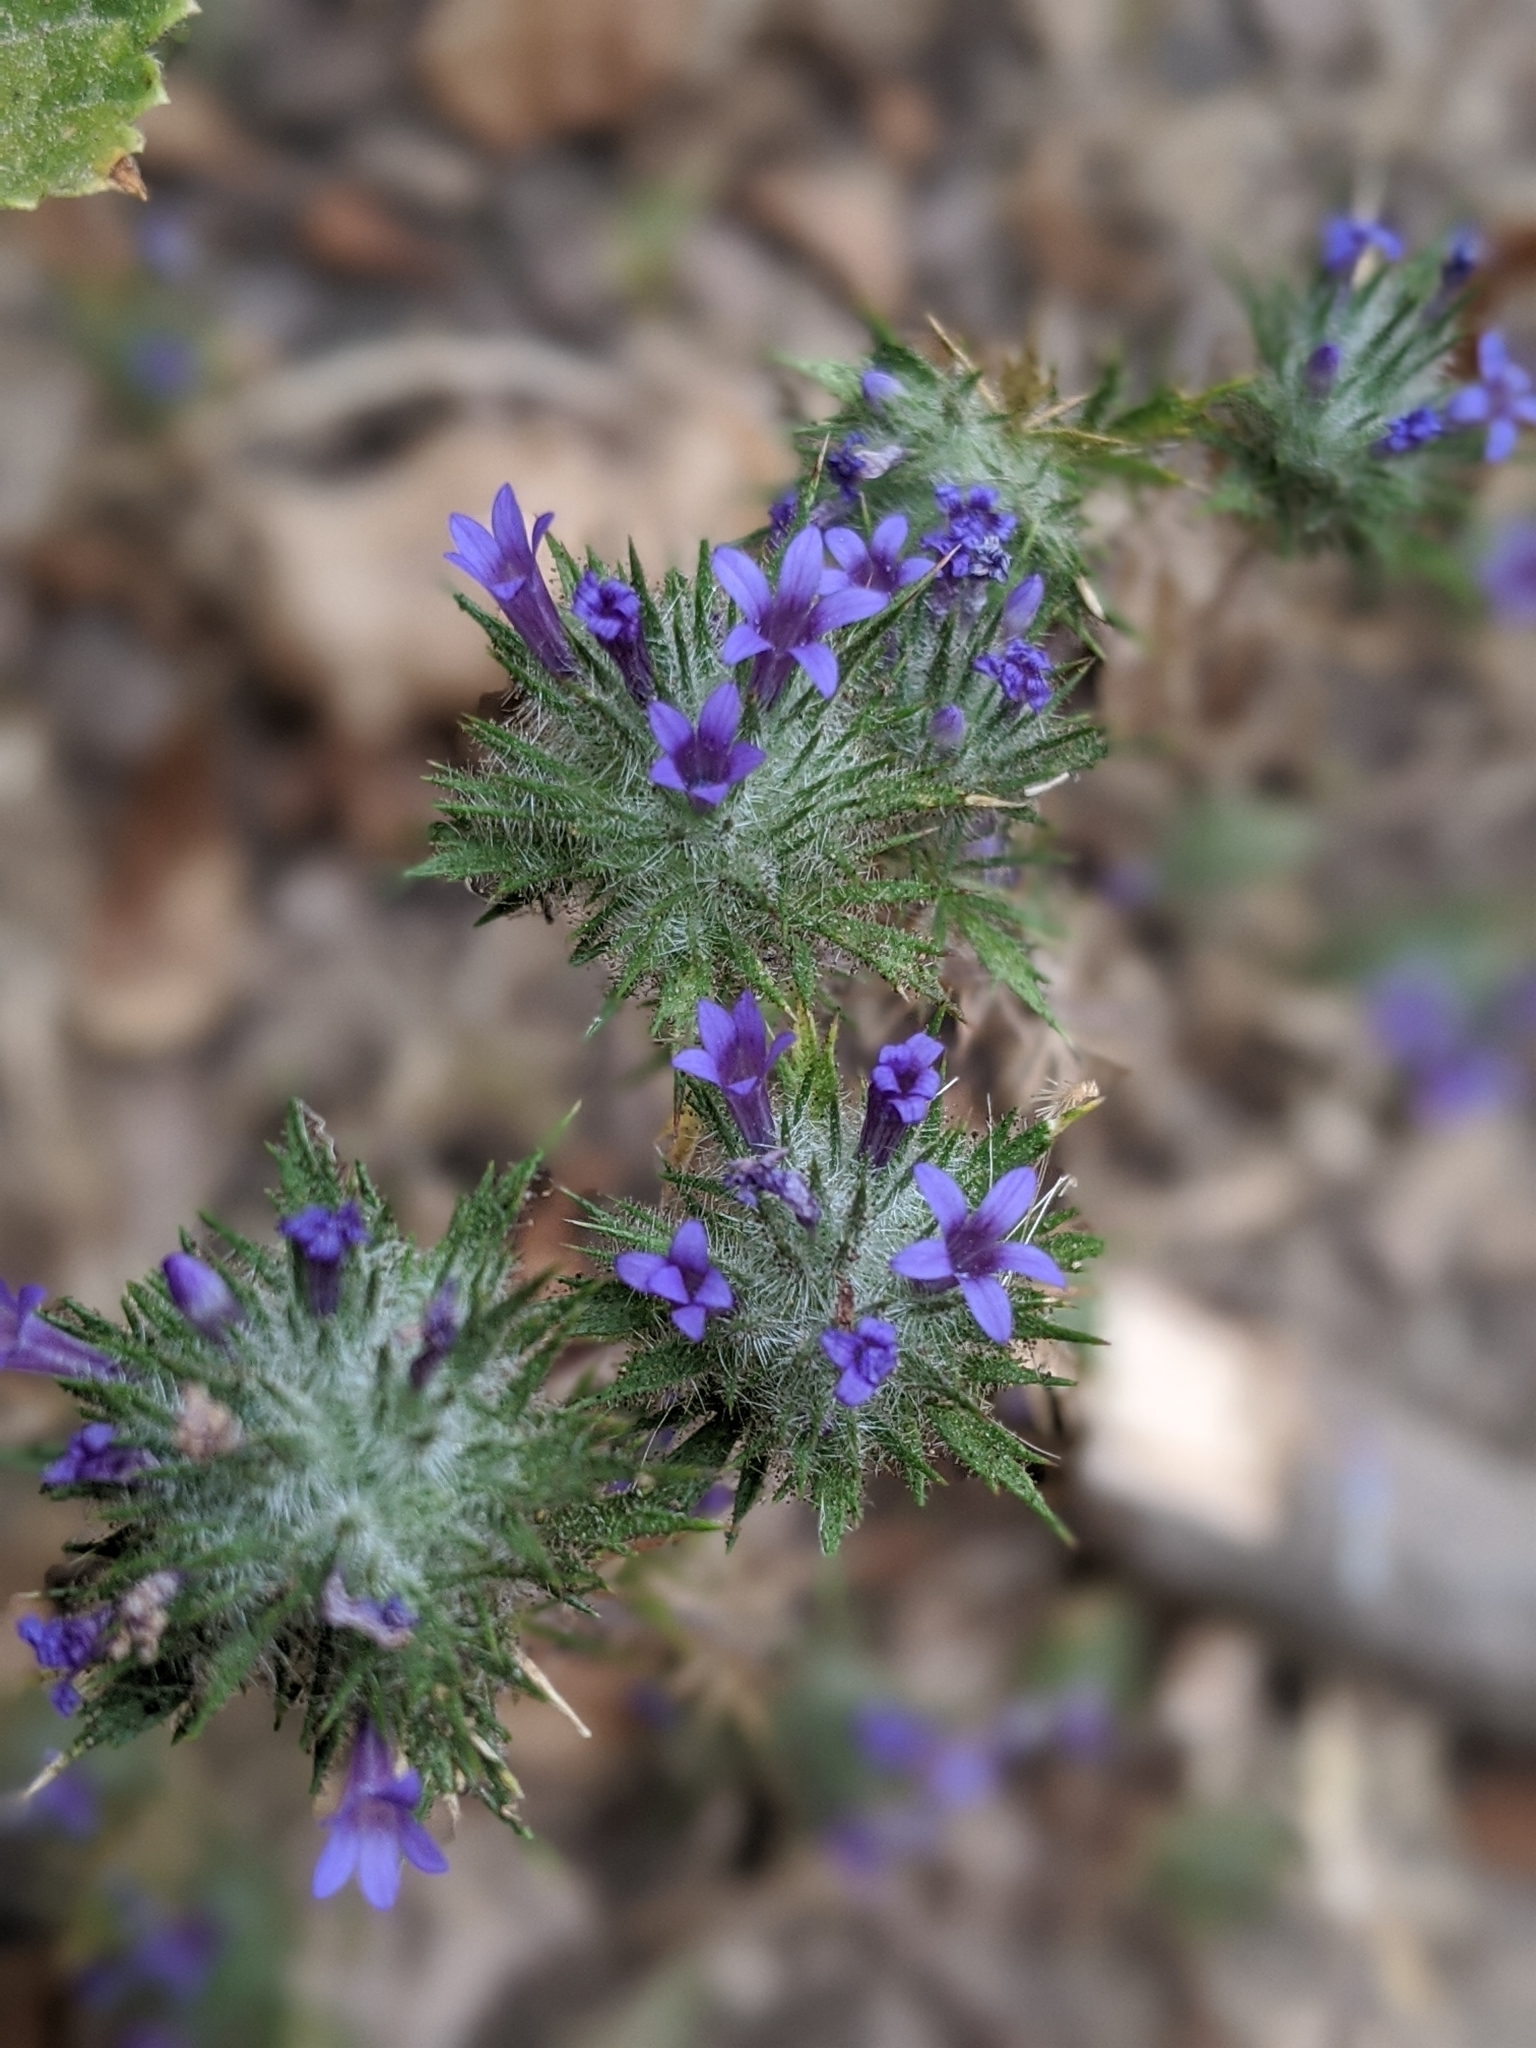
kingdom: Plantae
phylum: Tracheophyta
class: Magnoliopsida
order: Ericales
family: Polemoniaceae
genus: Navarretia
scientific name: Navarretia squarrosa
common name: Skunkweed
